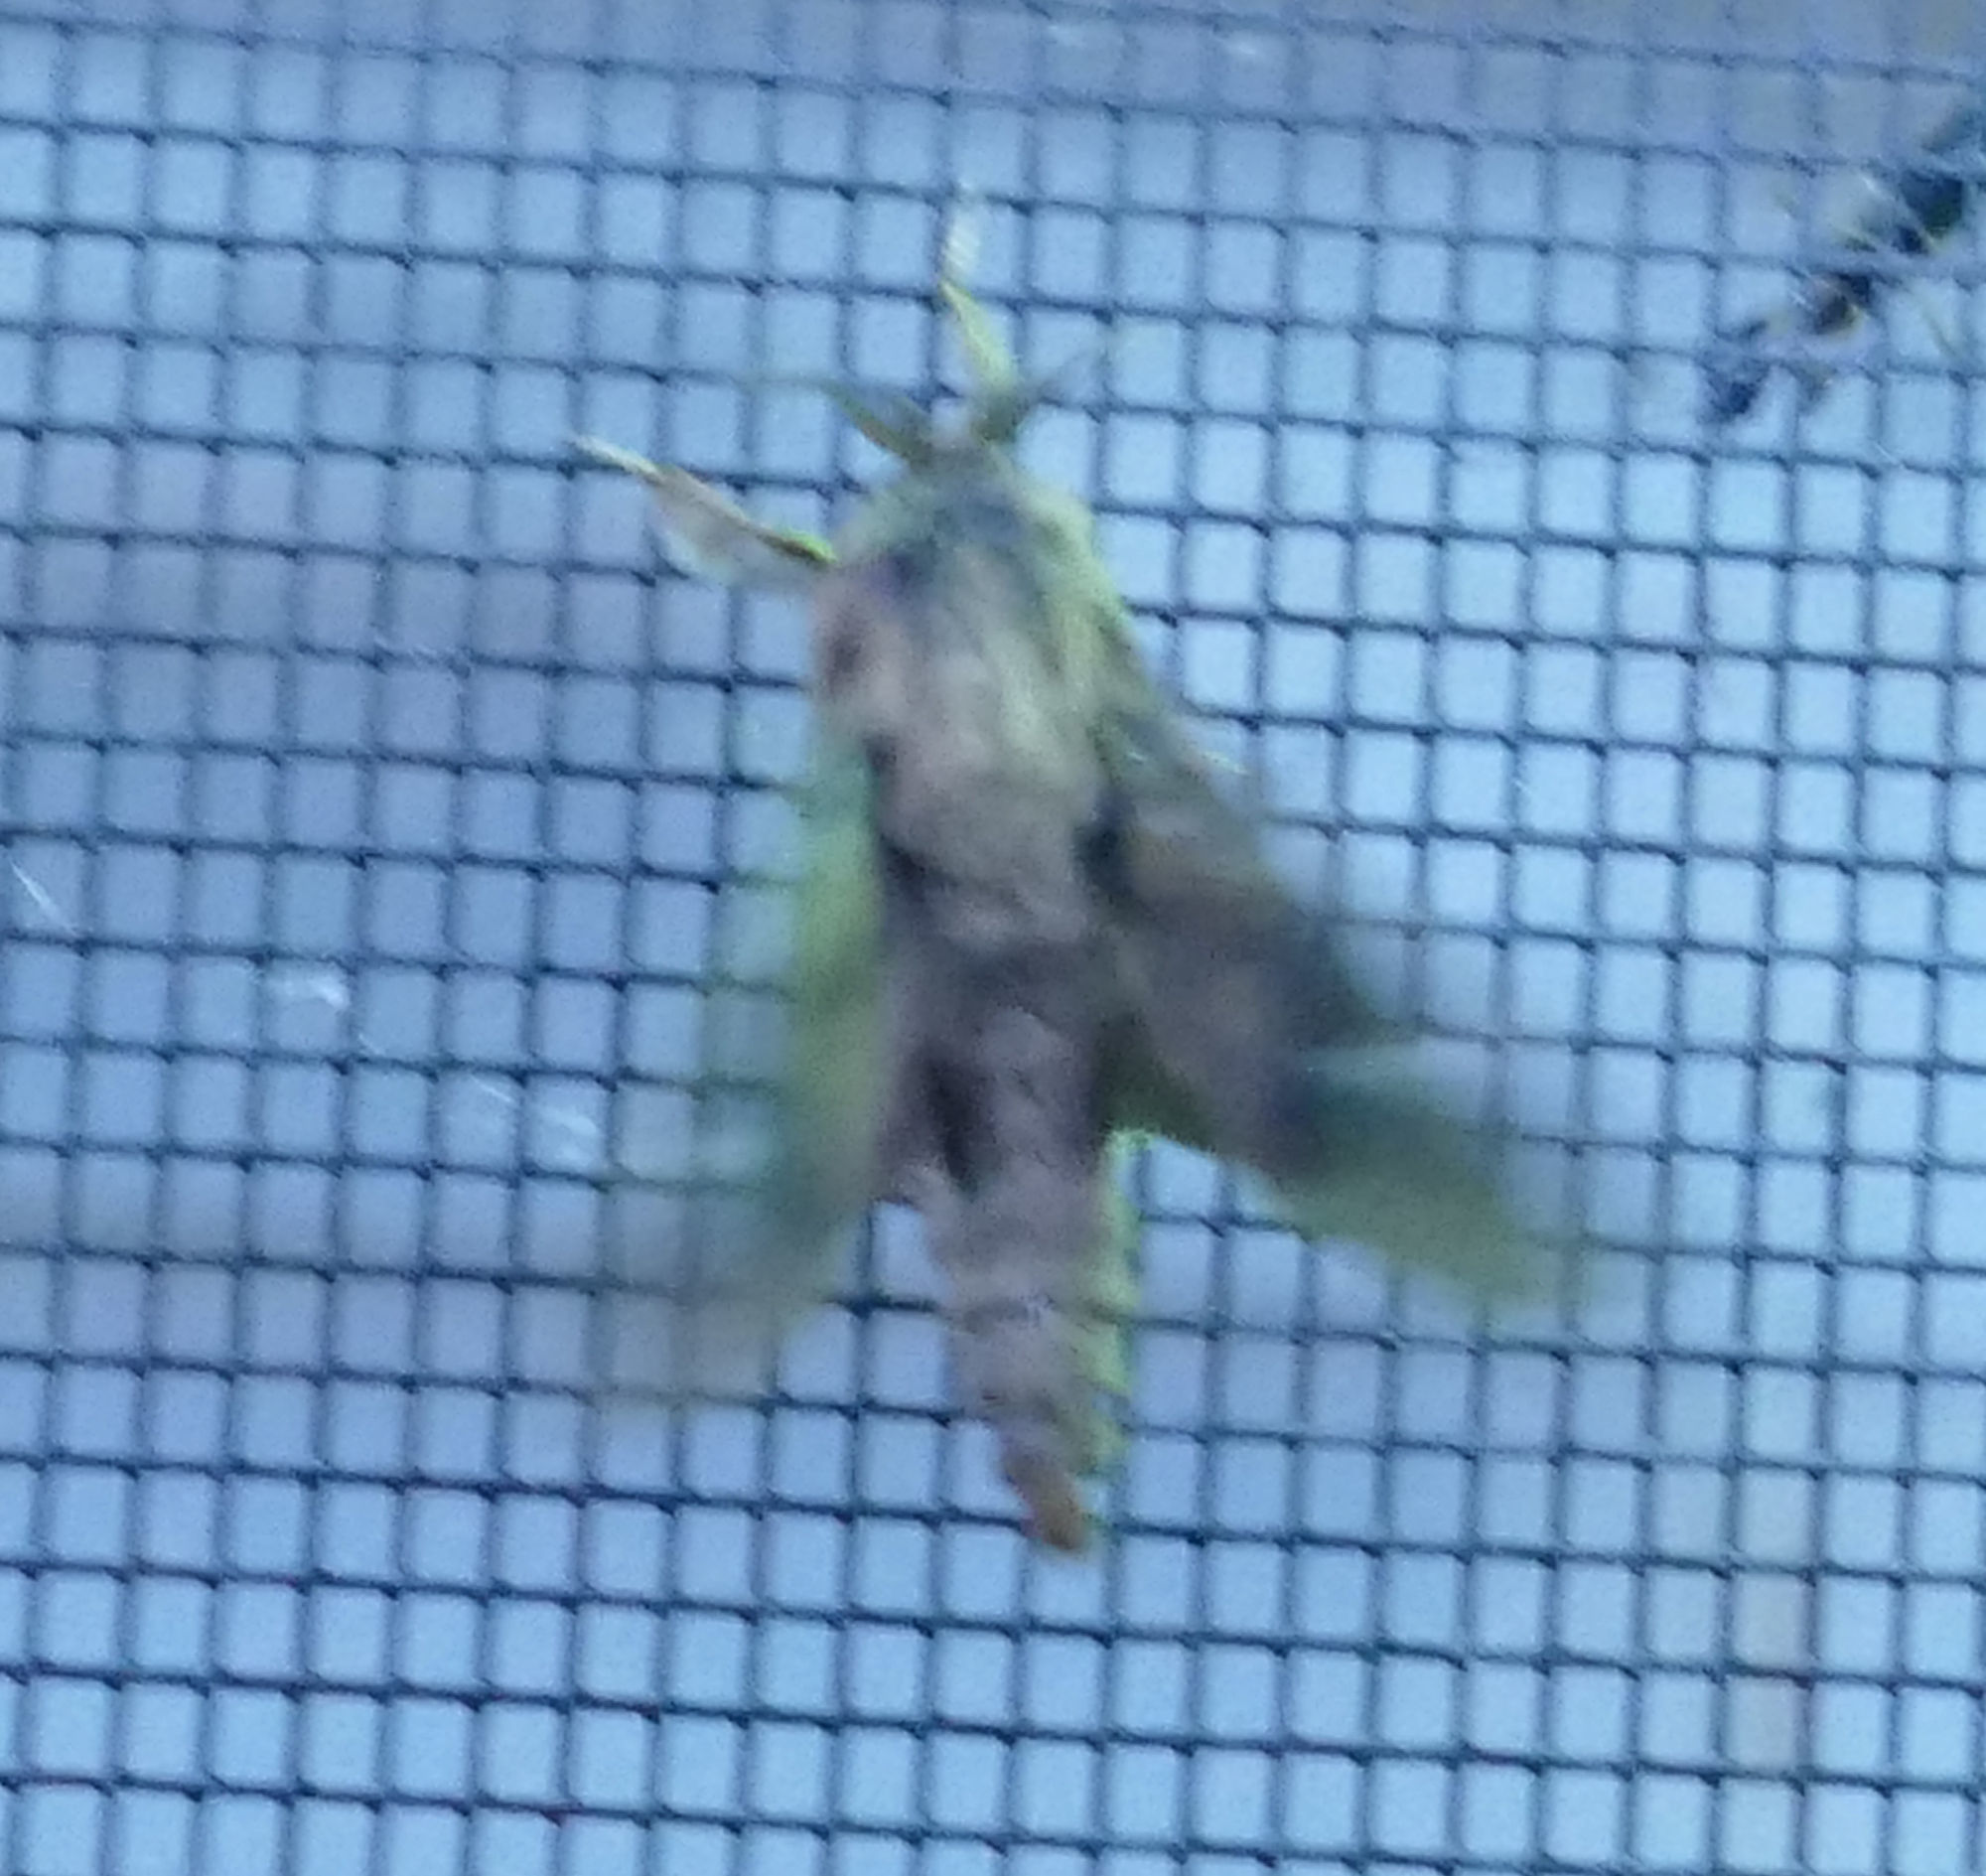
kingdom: Animalia
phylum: Arthropoda
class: Insecta
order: Lepidoptera
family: Psychidae
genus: Oiketicus
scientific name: Oiketicus
